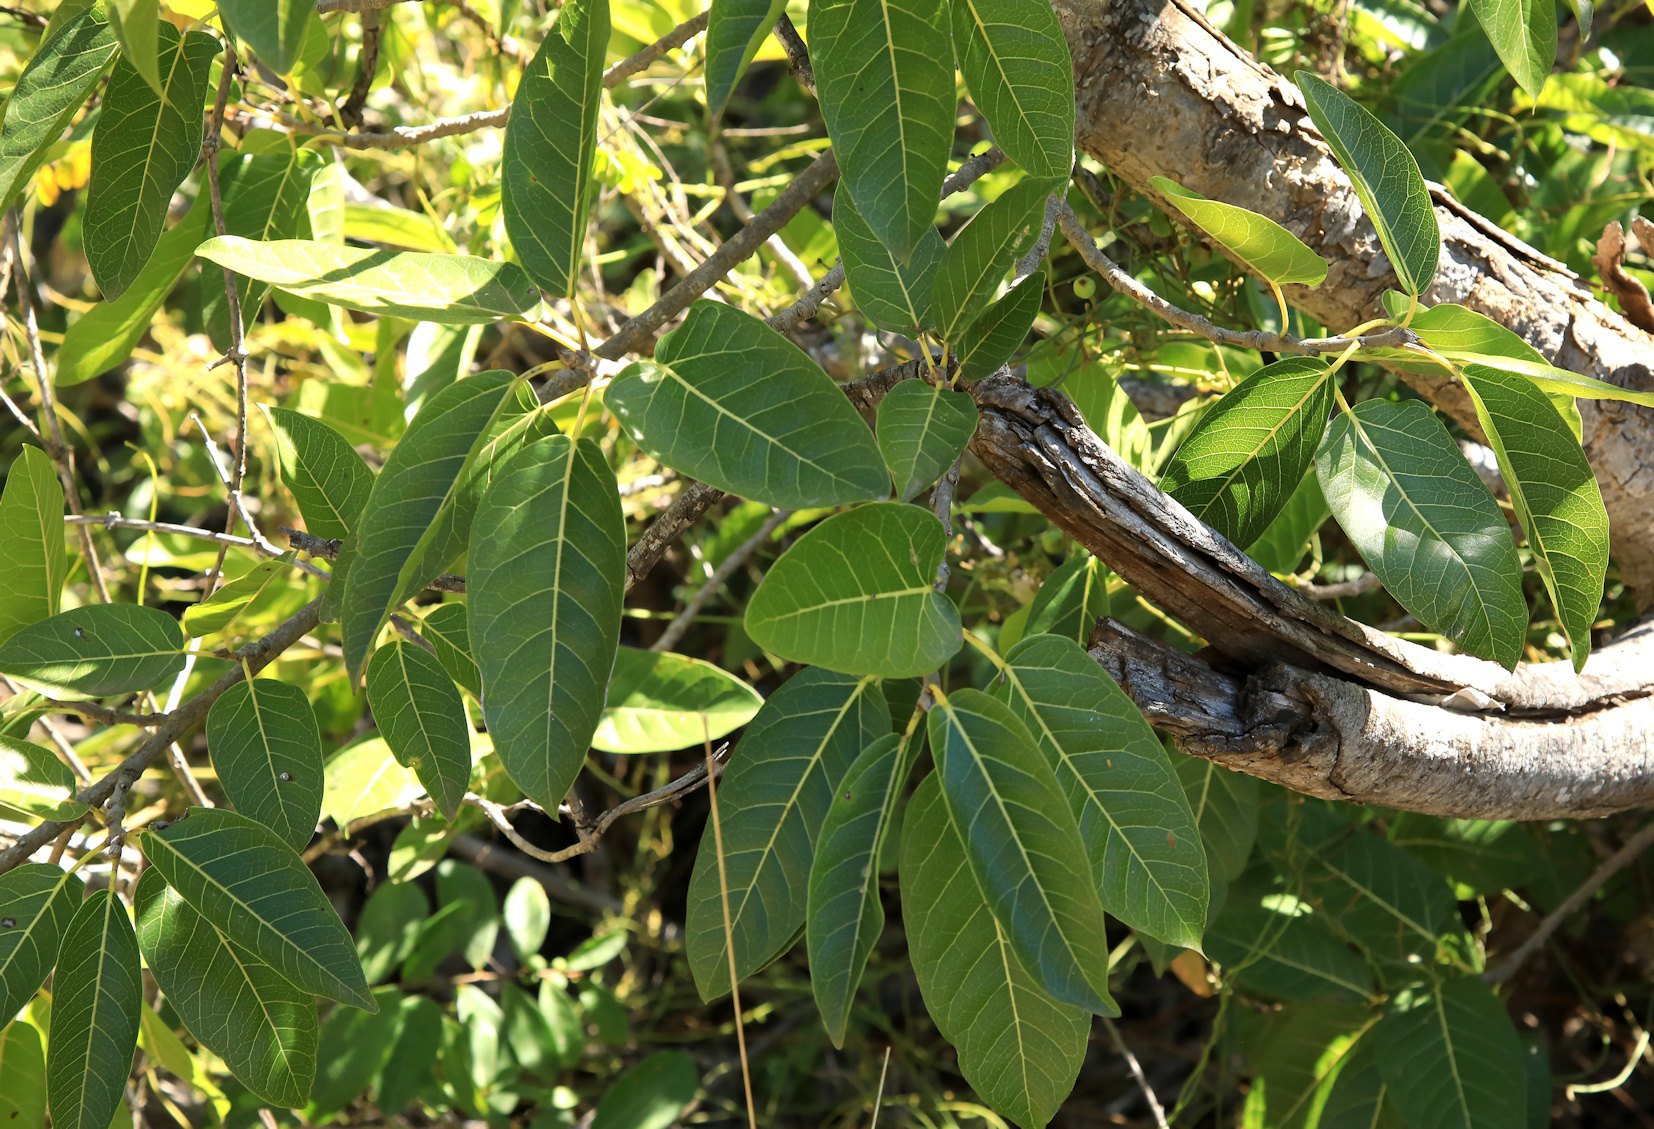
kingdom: Plantae
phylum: Tracheophyta
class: Magnoliopsida
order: Rosales
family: Moraceae
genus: Ficus
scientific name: Ficus ingens
